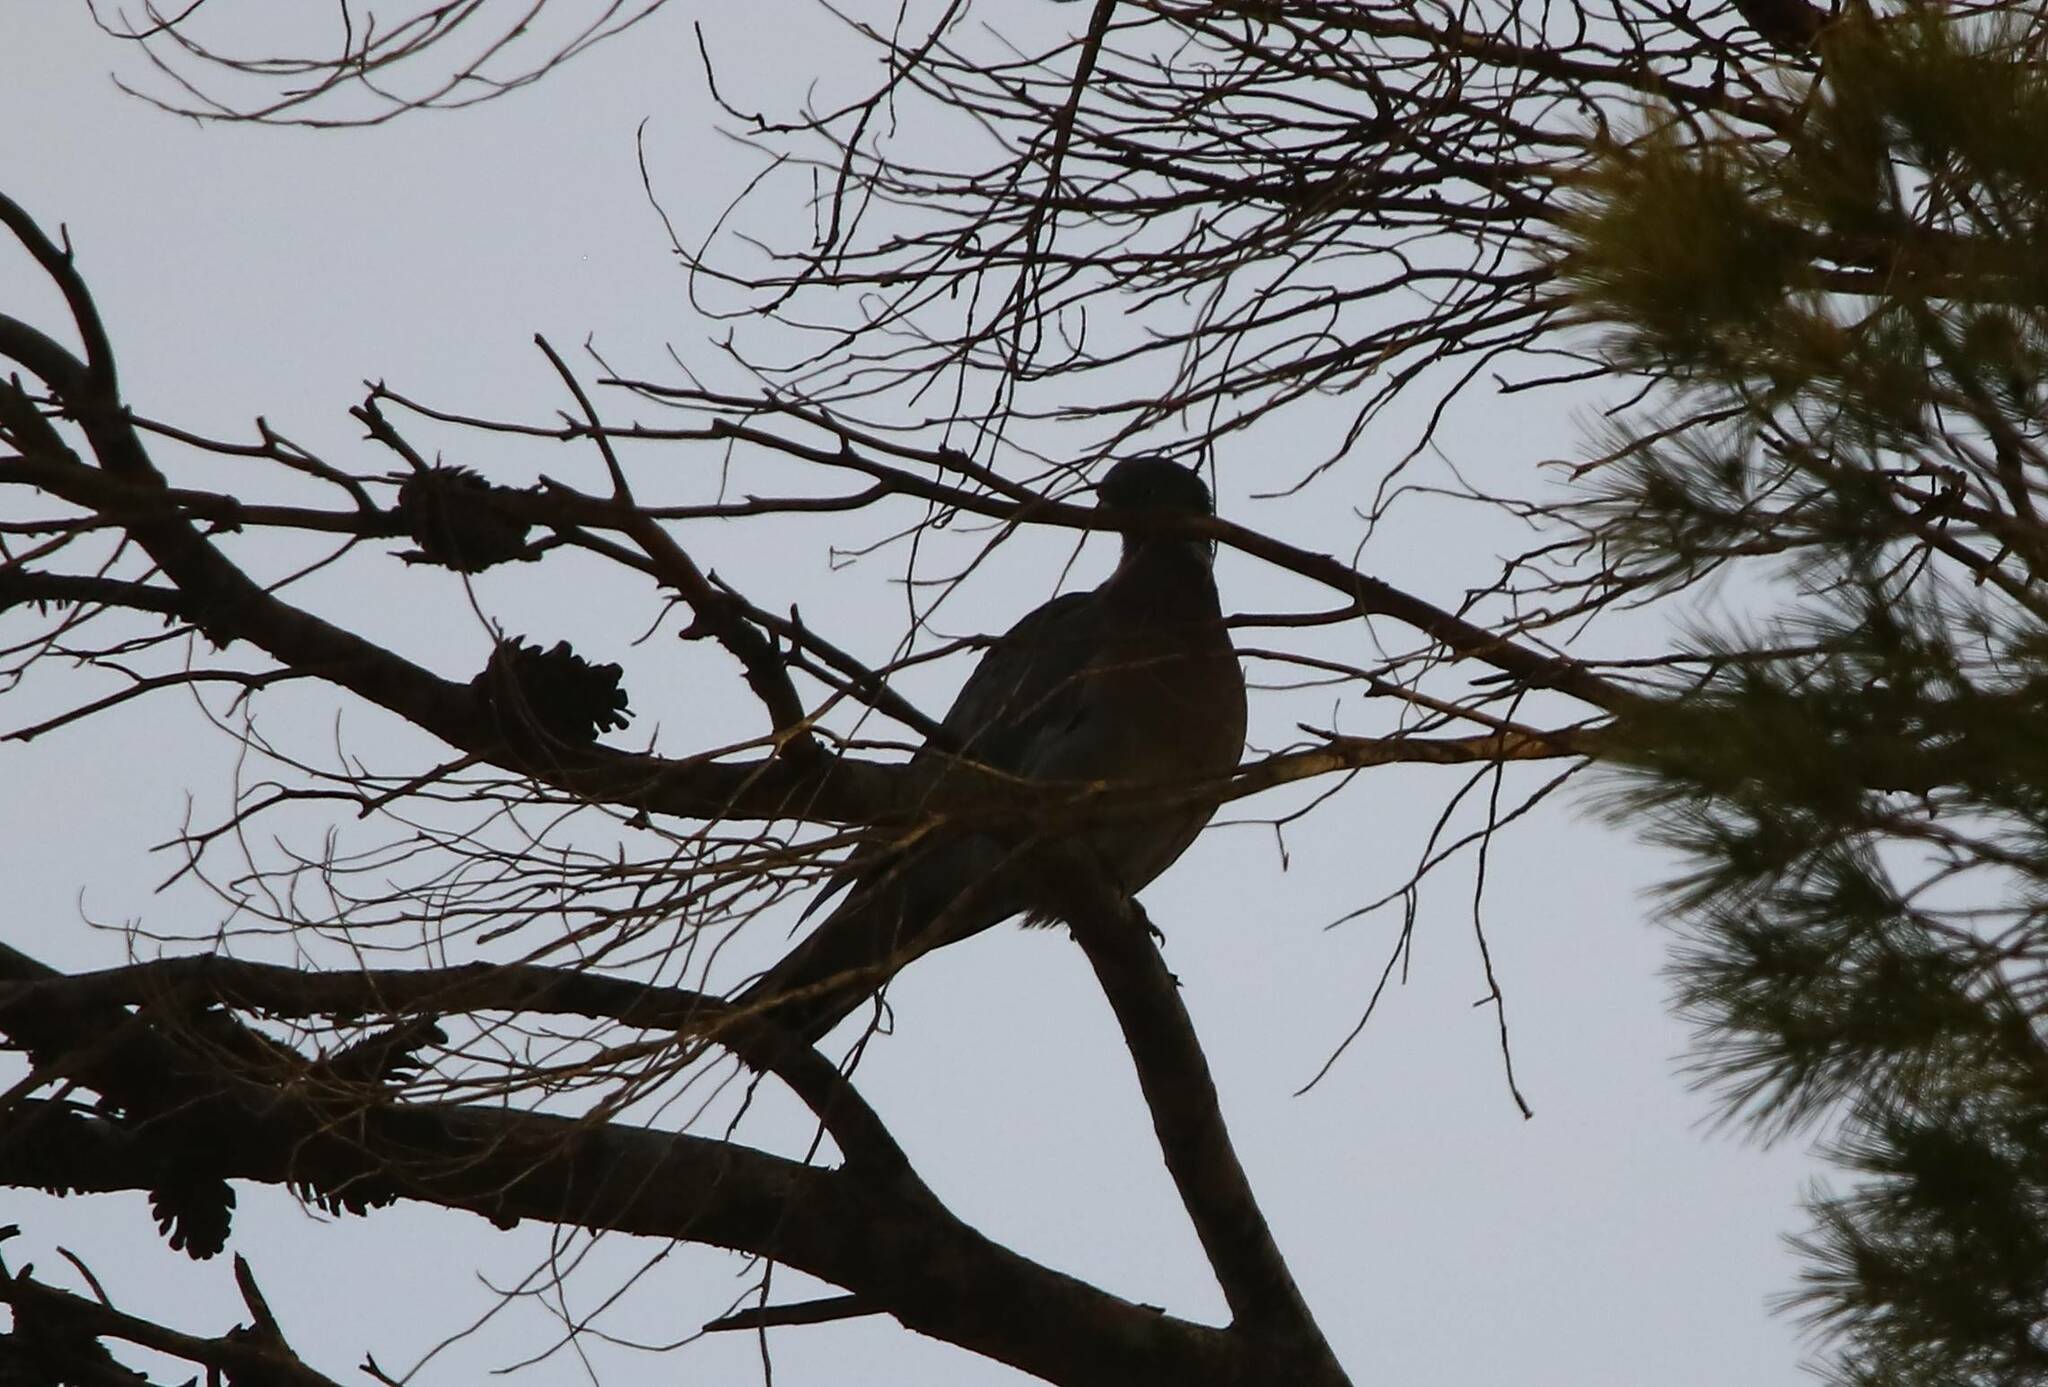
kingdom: Animalia
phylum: Chordata
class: Aves
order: Columbiformes
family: Columbidae
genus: Columba
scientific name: Columba palumbus
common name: Common wood pigeon
